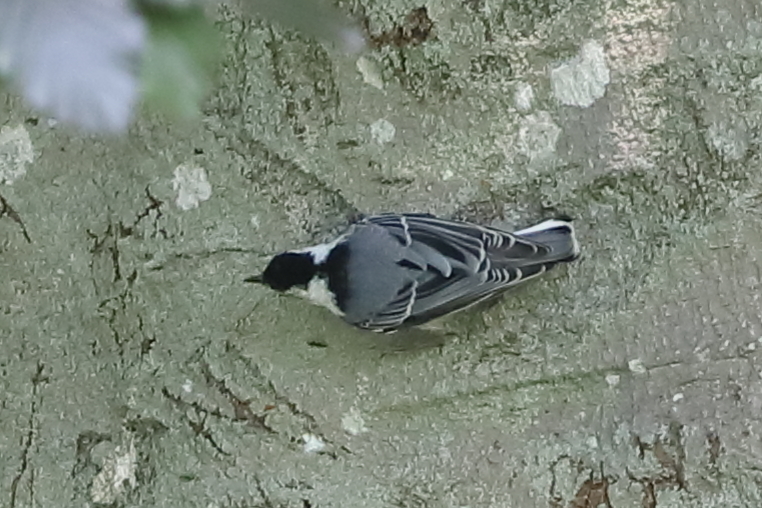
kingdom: Animalia
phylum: Chordata
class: Aves
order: Passeriformes
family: Sittidae
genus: Sitta
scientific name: Sitta carolinensis
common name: White-breasted nuthatch
